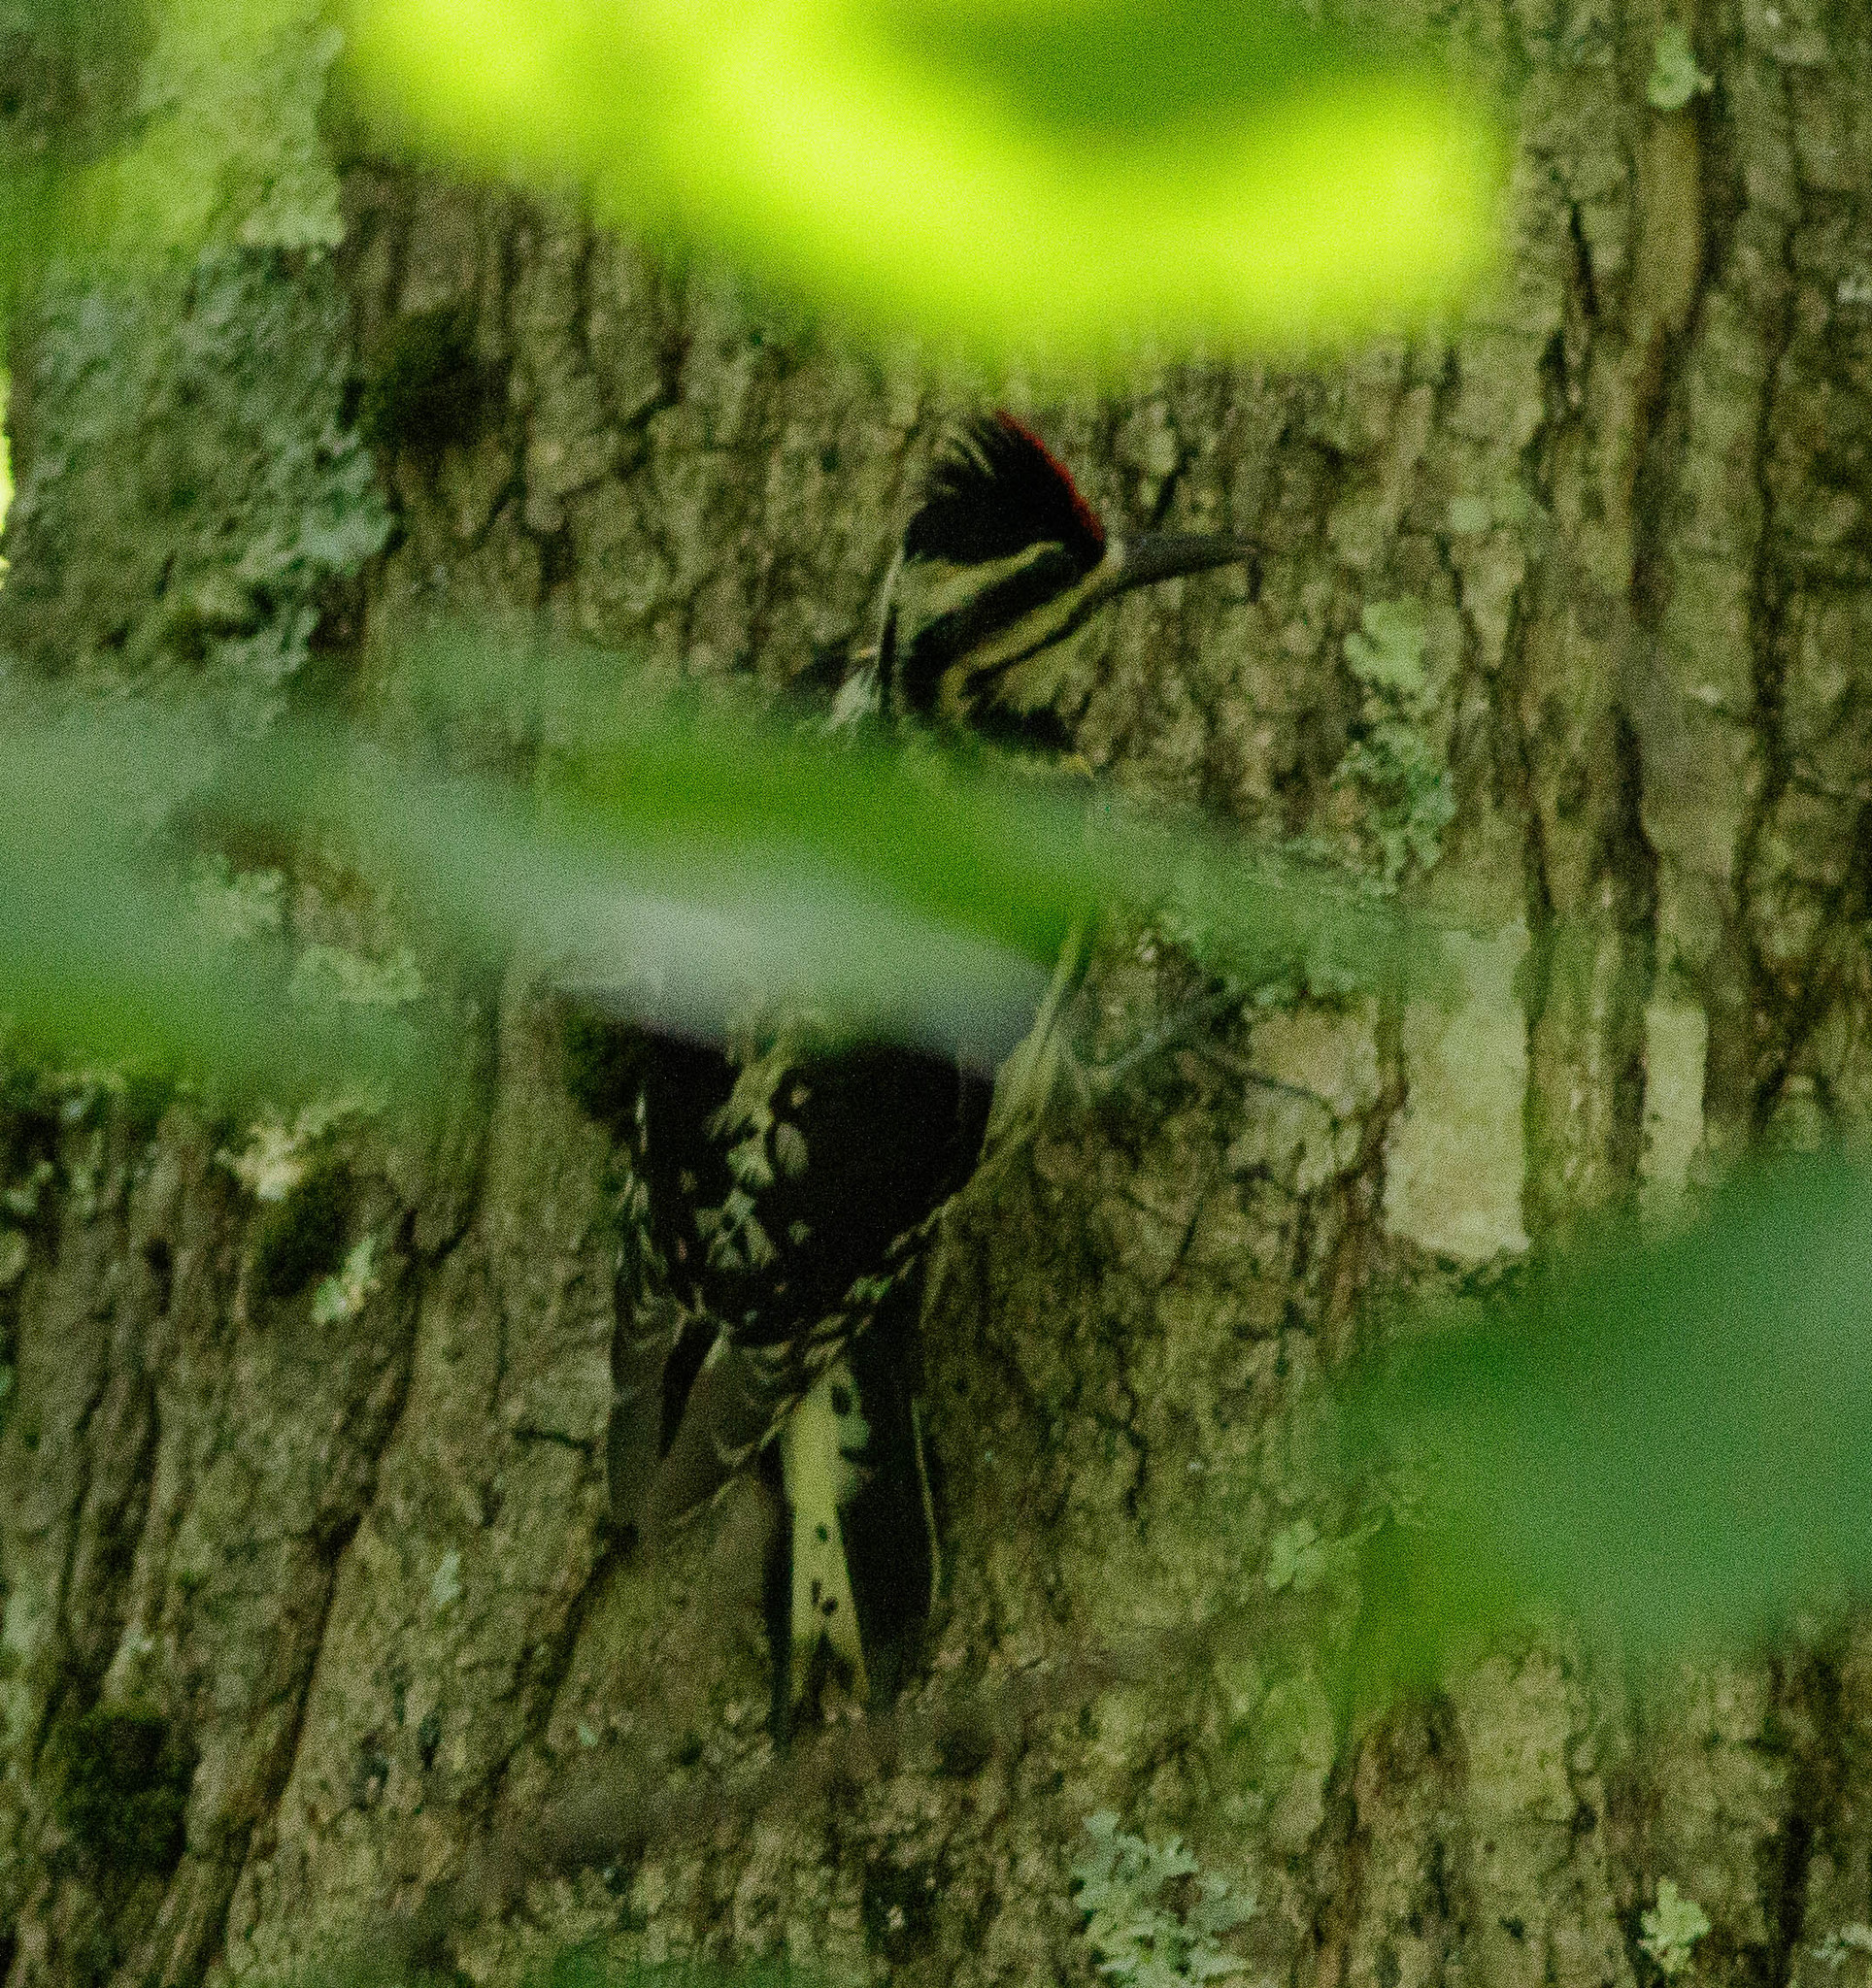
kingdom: Animalia
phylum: Chordata
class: Aves
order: Piciformes
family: Picidae
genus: Sphyrapicus
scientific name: Sphyrapicus varius
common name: Yellow-bellied sapsucker
